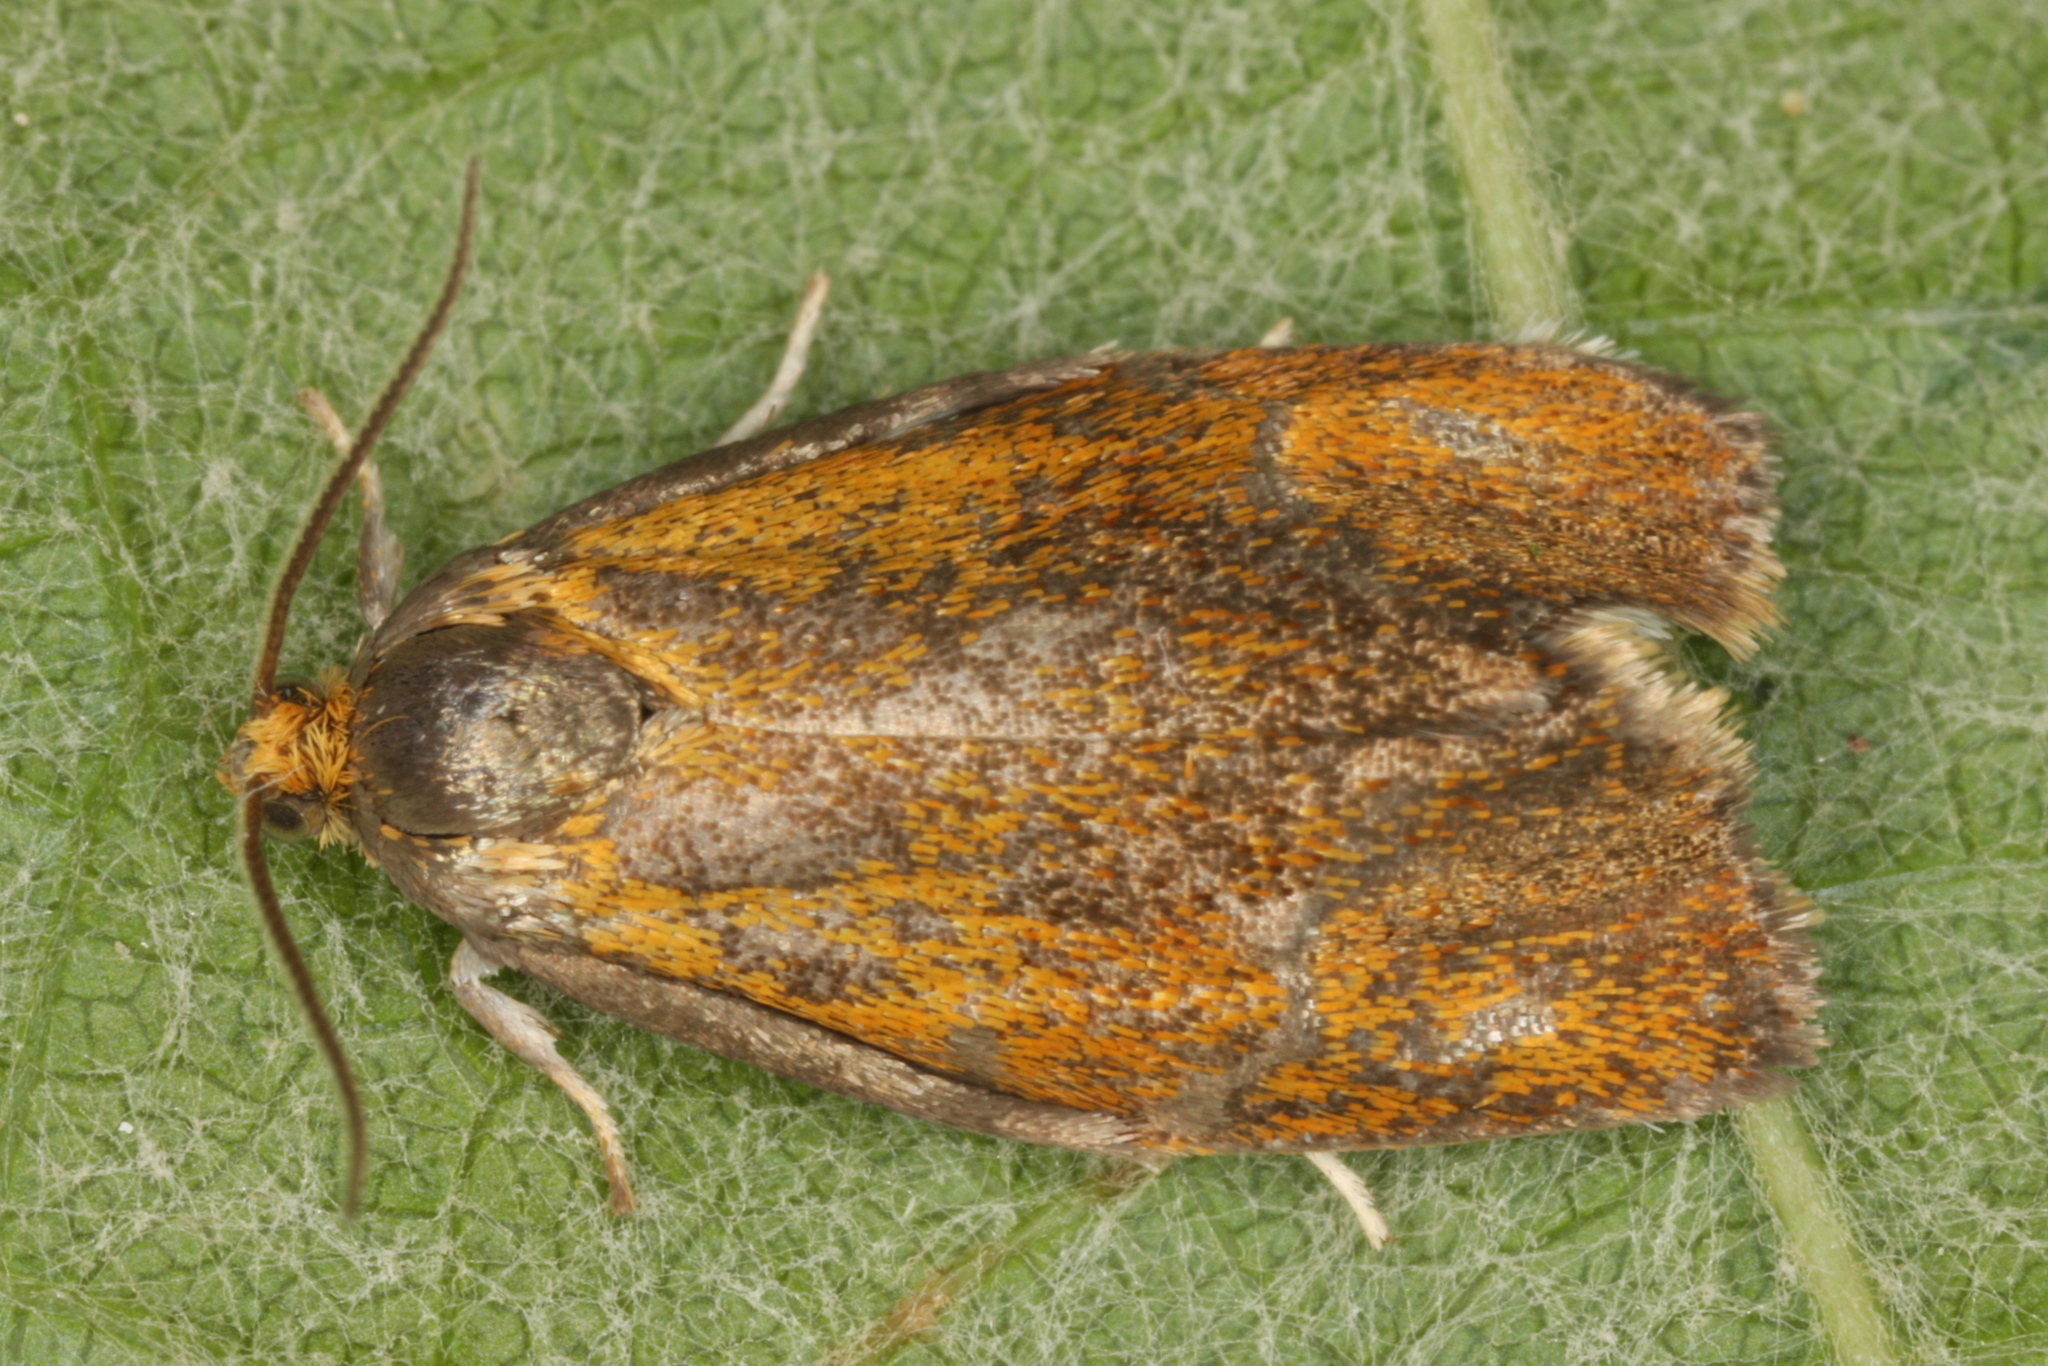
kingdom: Animalia
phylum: Arthropoda
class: Insecta
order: Lepidoptera
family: Tortricidae
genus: Ptycholoma
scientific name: Ptycholoma lecheana
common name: Leches twist moth
